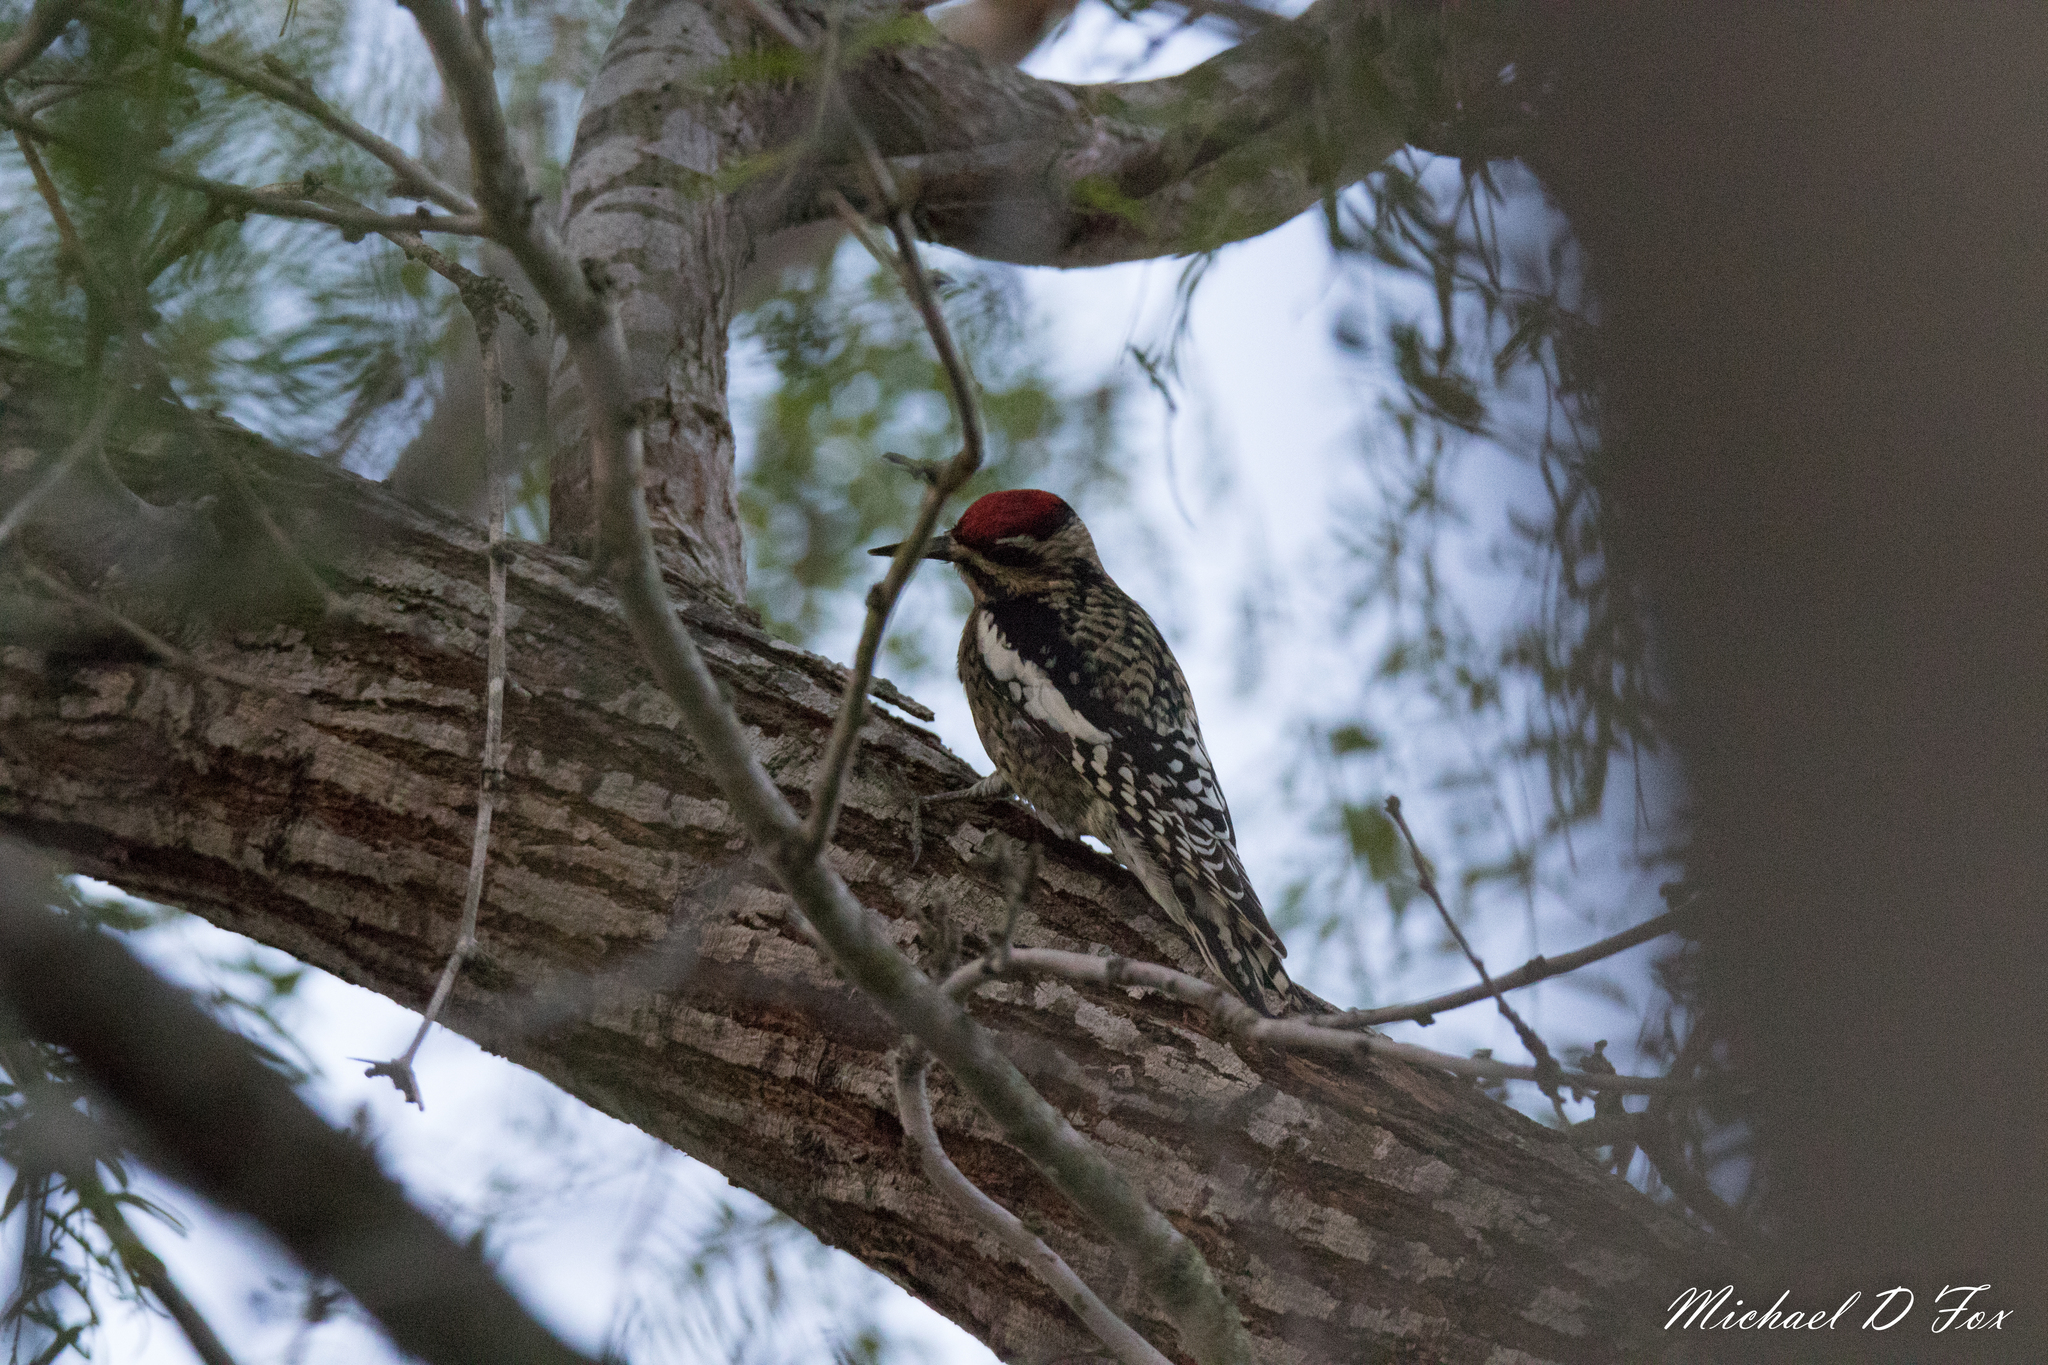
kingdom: Animalia
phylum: Chordata
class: Aves
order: Piciformes
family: Picidae
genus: Sphyrapicus
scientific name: Sphyrapicus varius
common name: Yellow-bellied sapsucker
